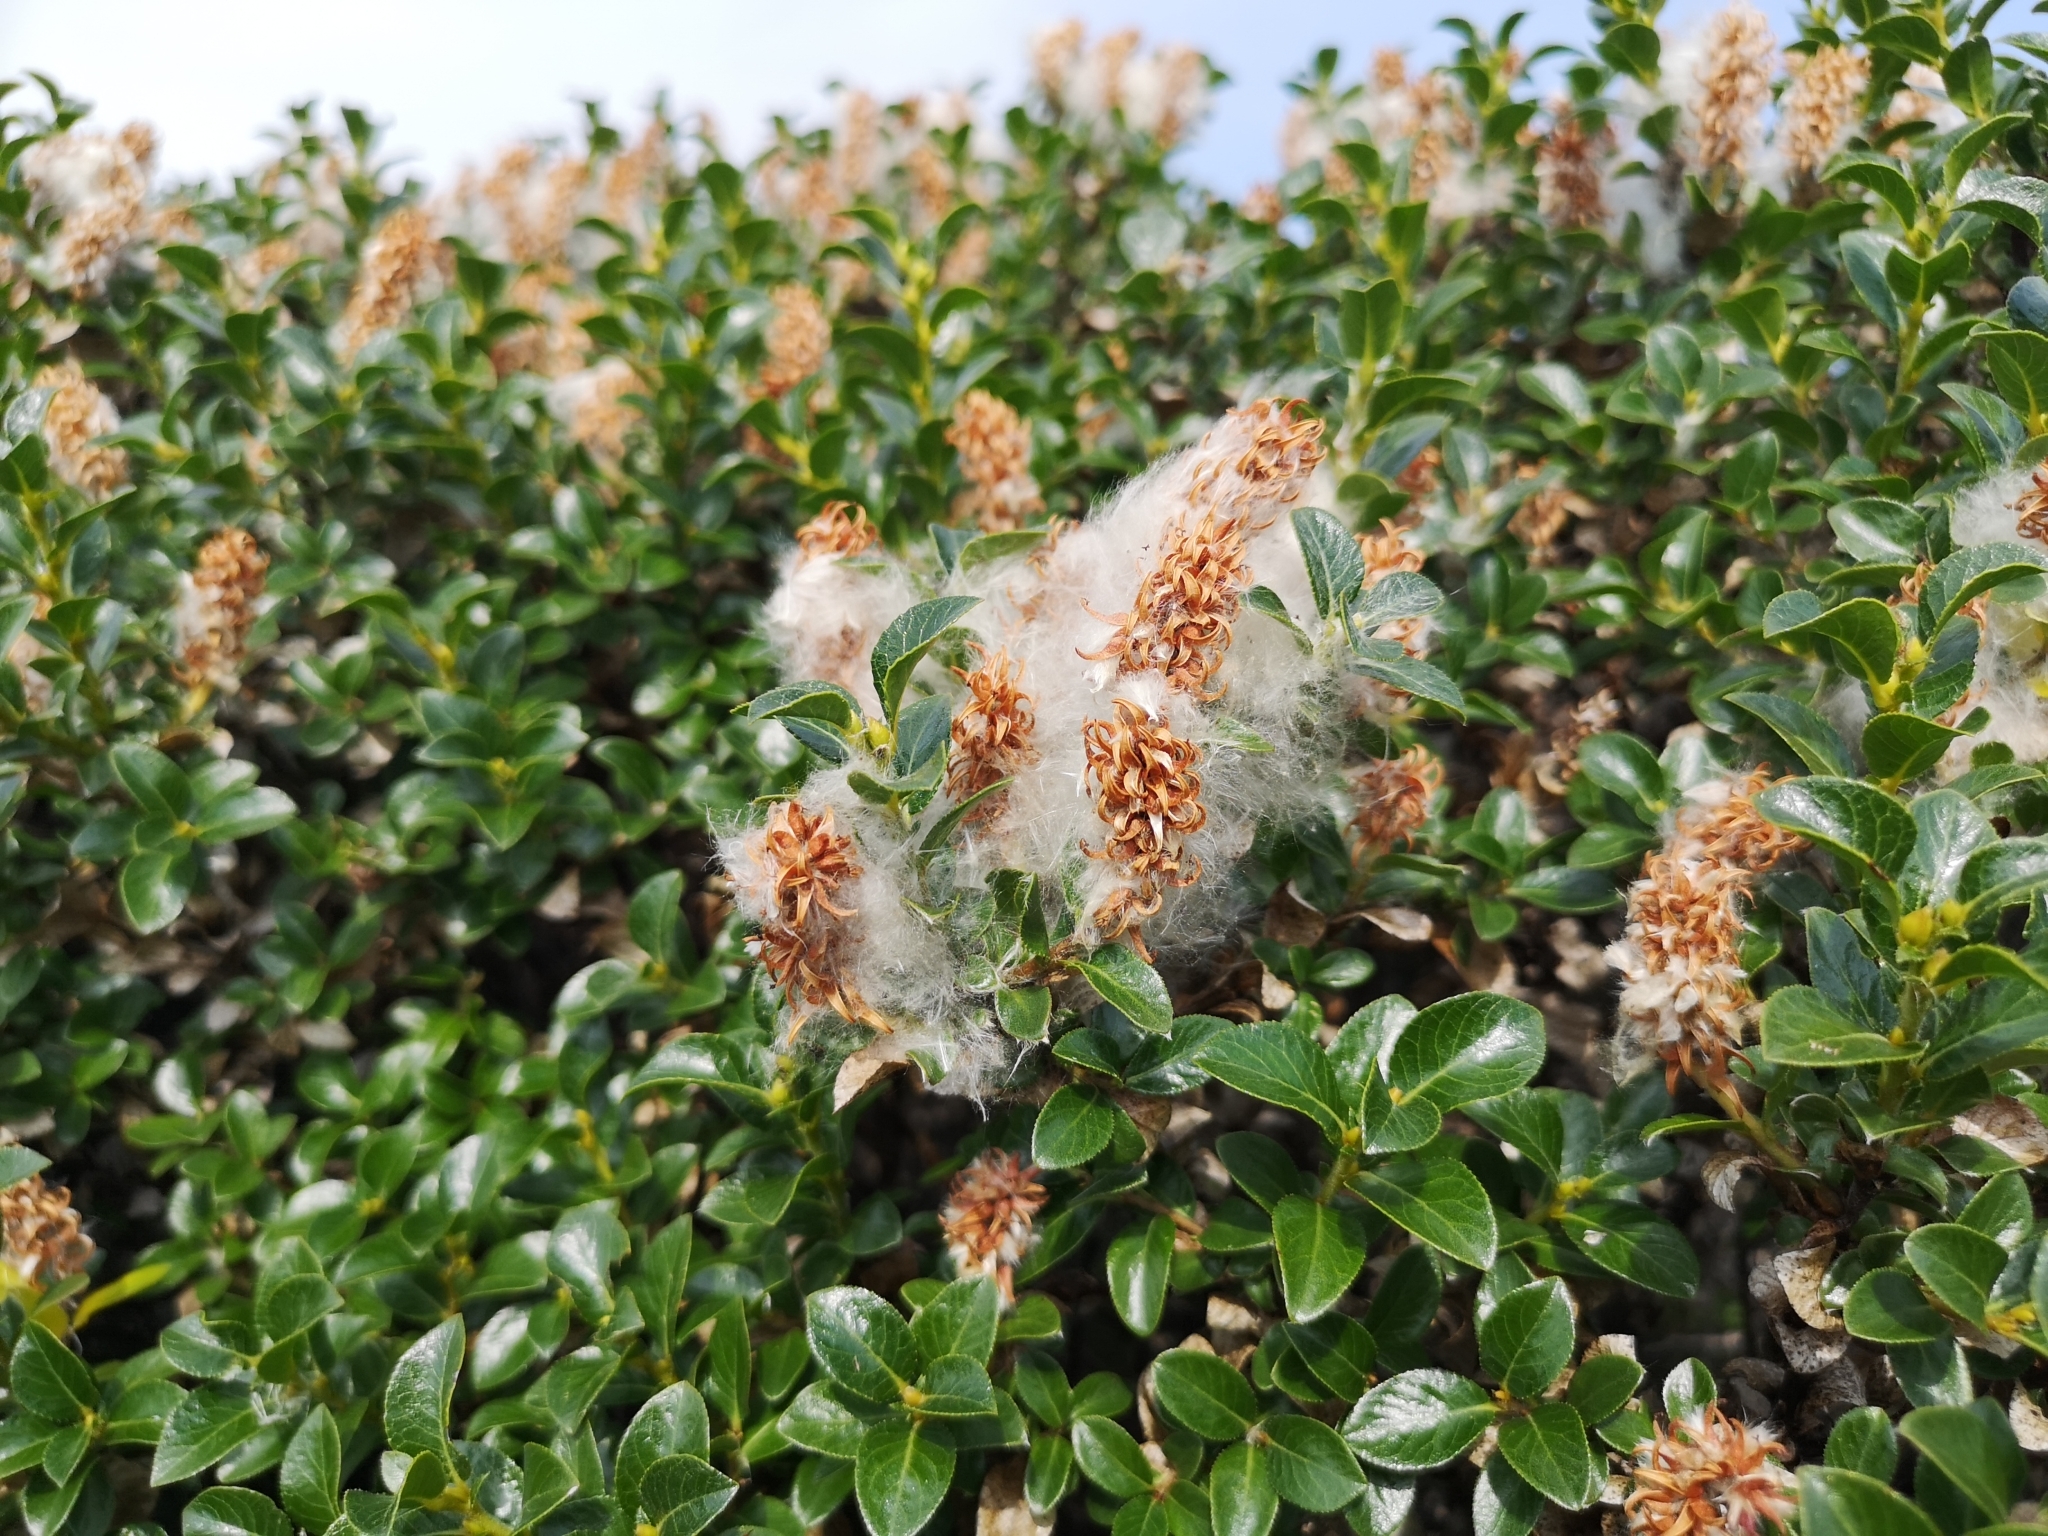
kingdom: Plantae
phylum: Tracheophyta
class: Magnoliopsida
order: Malpighiales
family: Salicaceae
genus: Salix
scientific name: Salix myrsinites
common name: Myrtle willow
